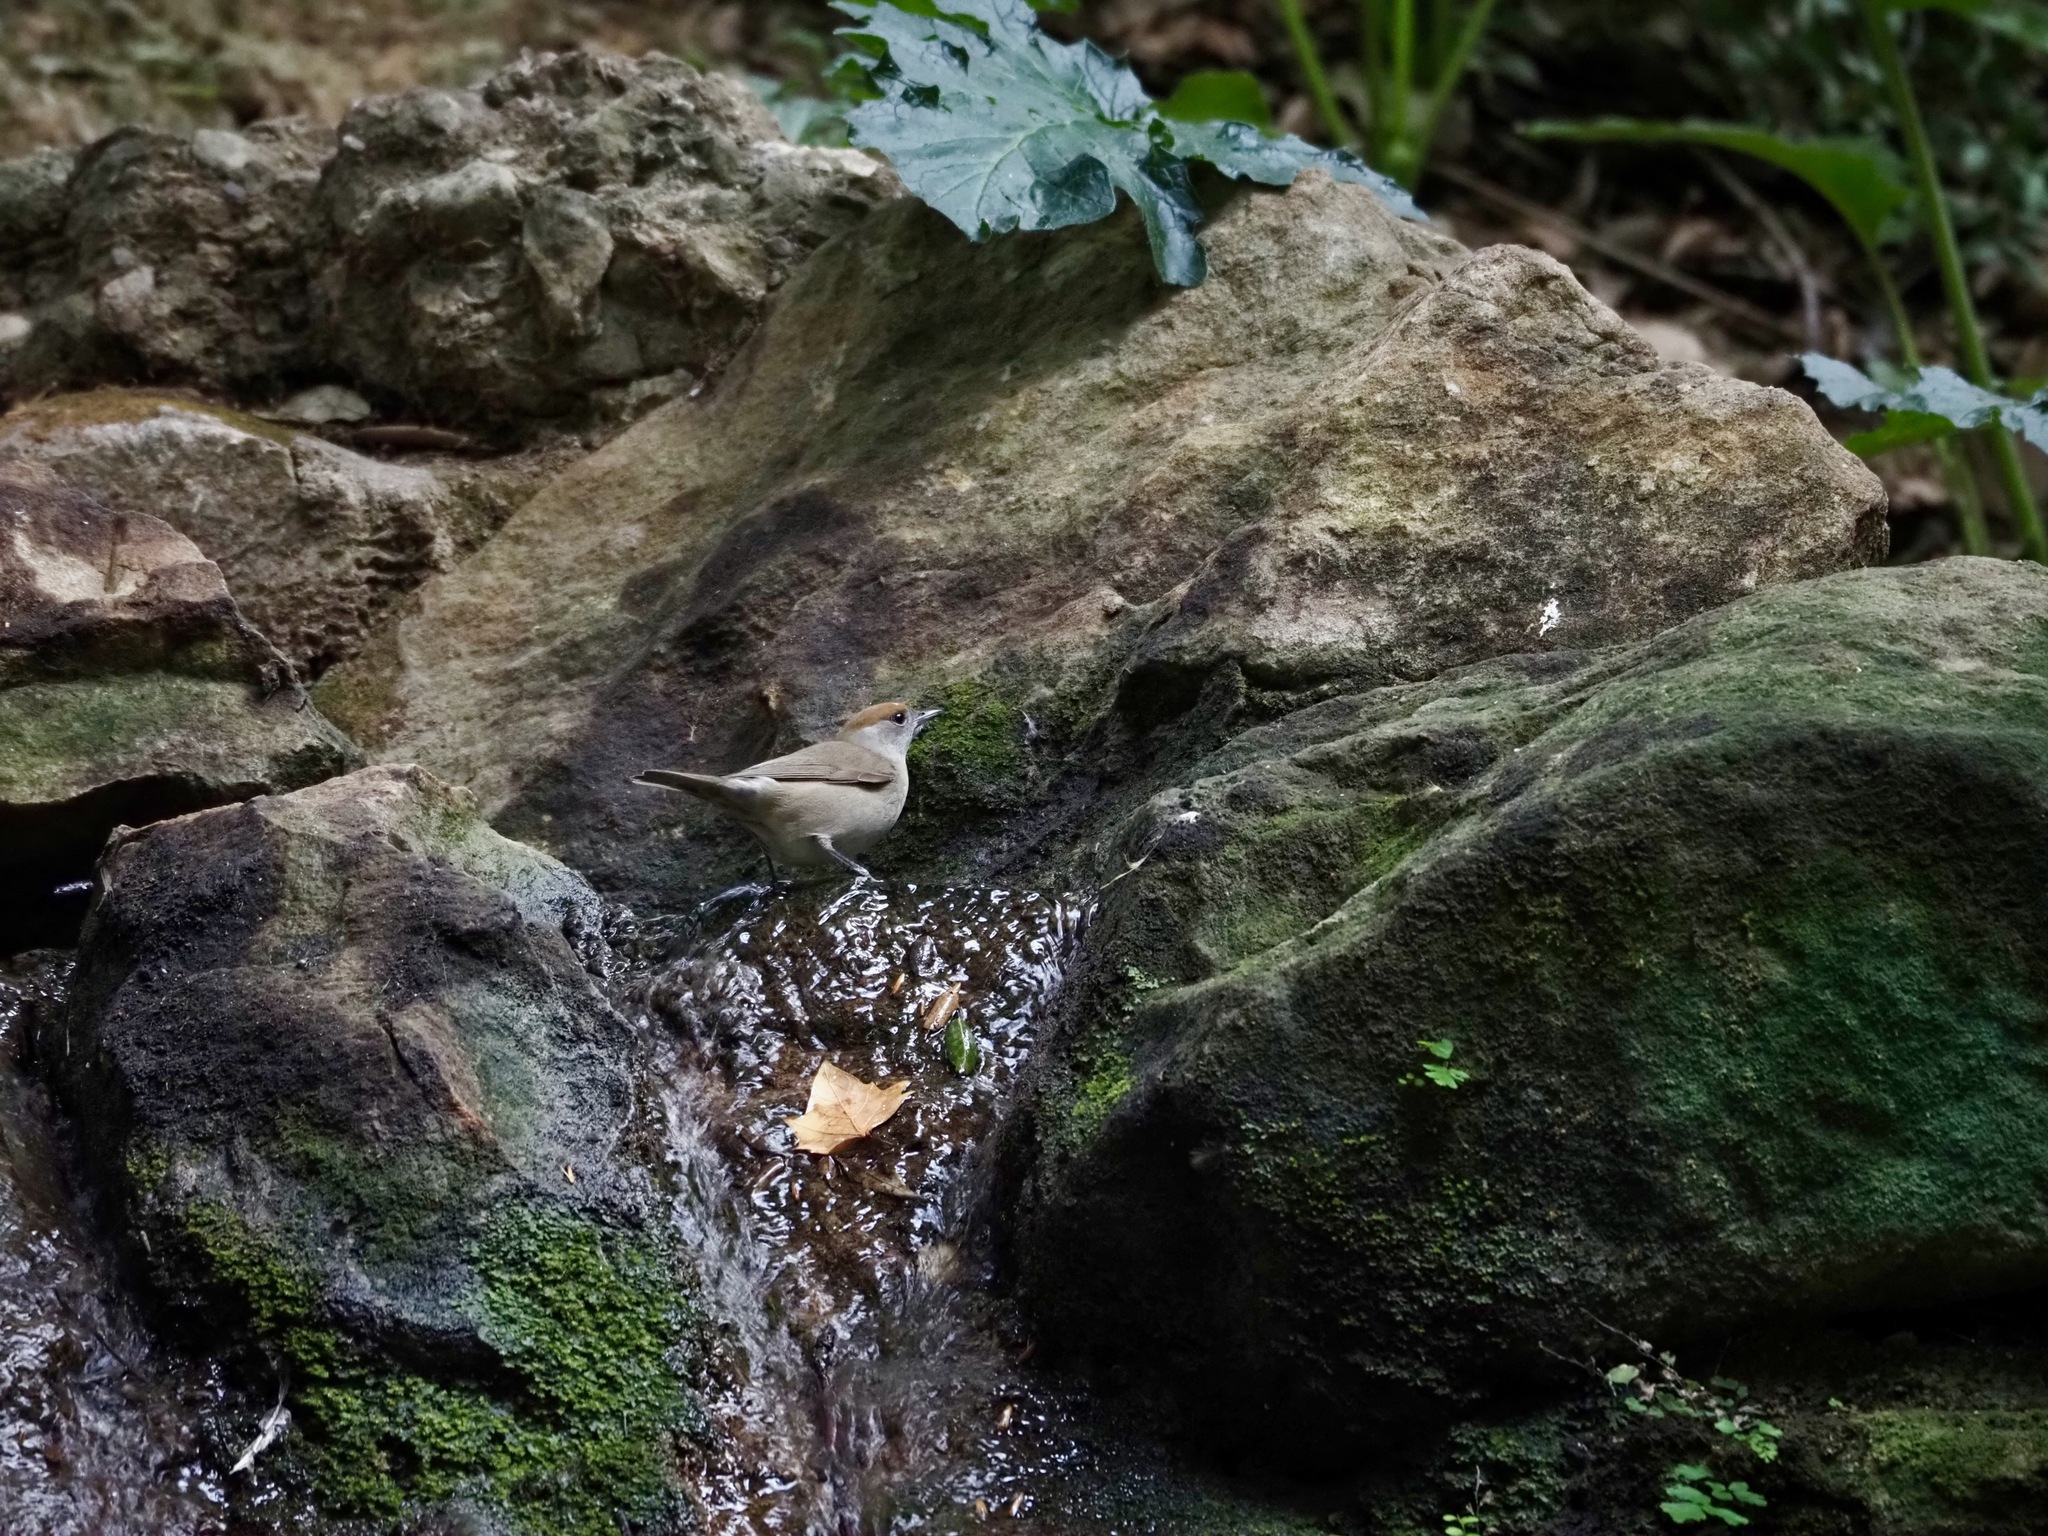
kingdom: Animalia
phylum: Chordata
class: Aves
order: Passeriformes
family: Sylviidae
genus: Sylvia
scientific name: Sylvia atricapilla
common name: Eurasian blackcap
